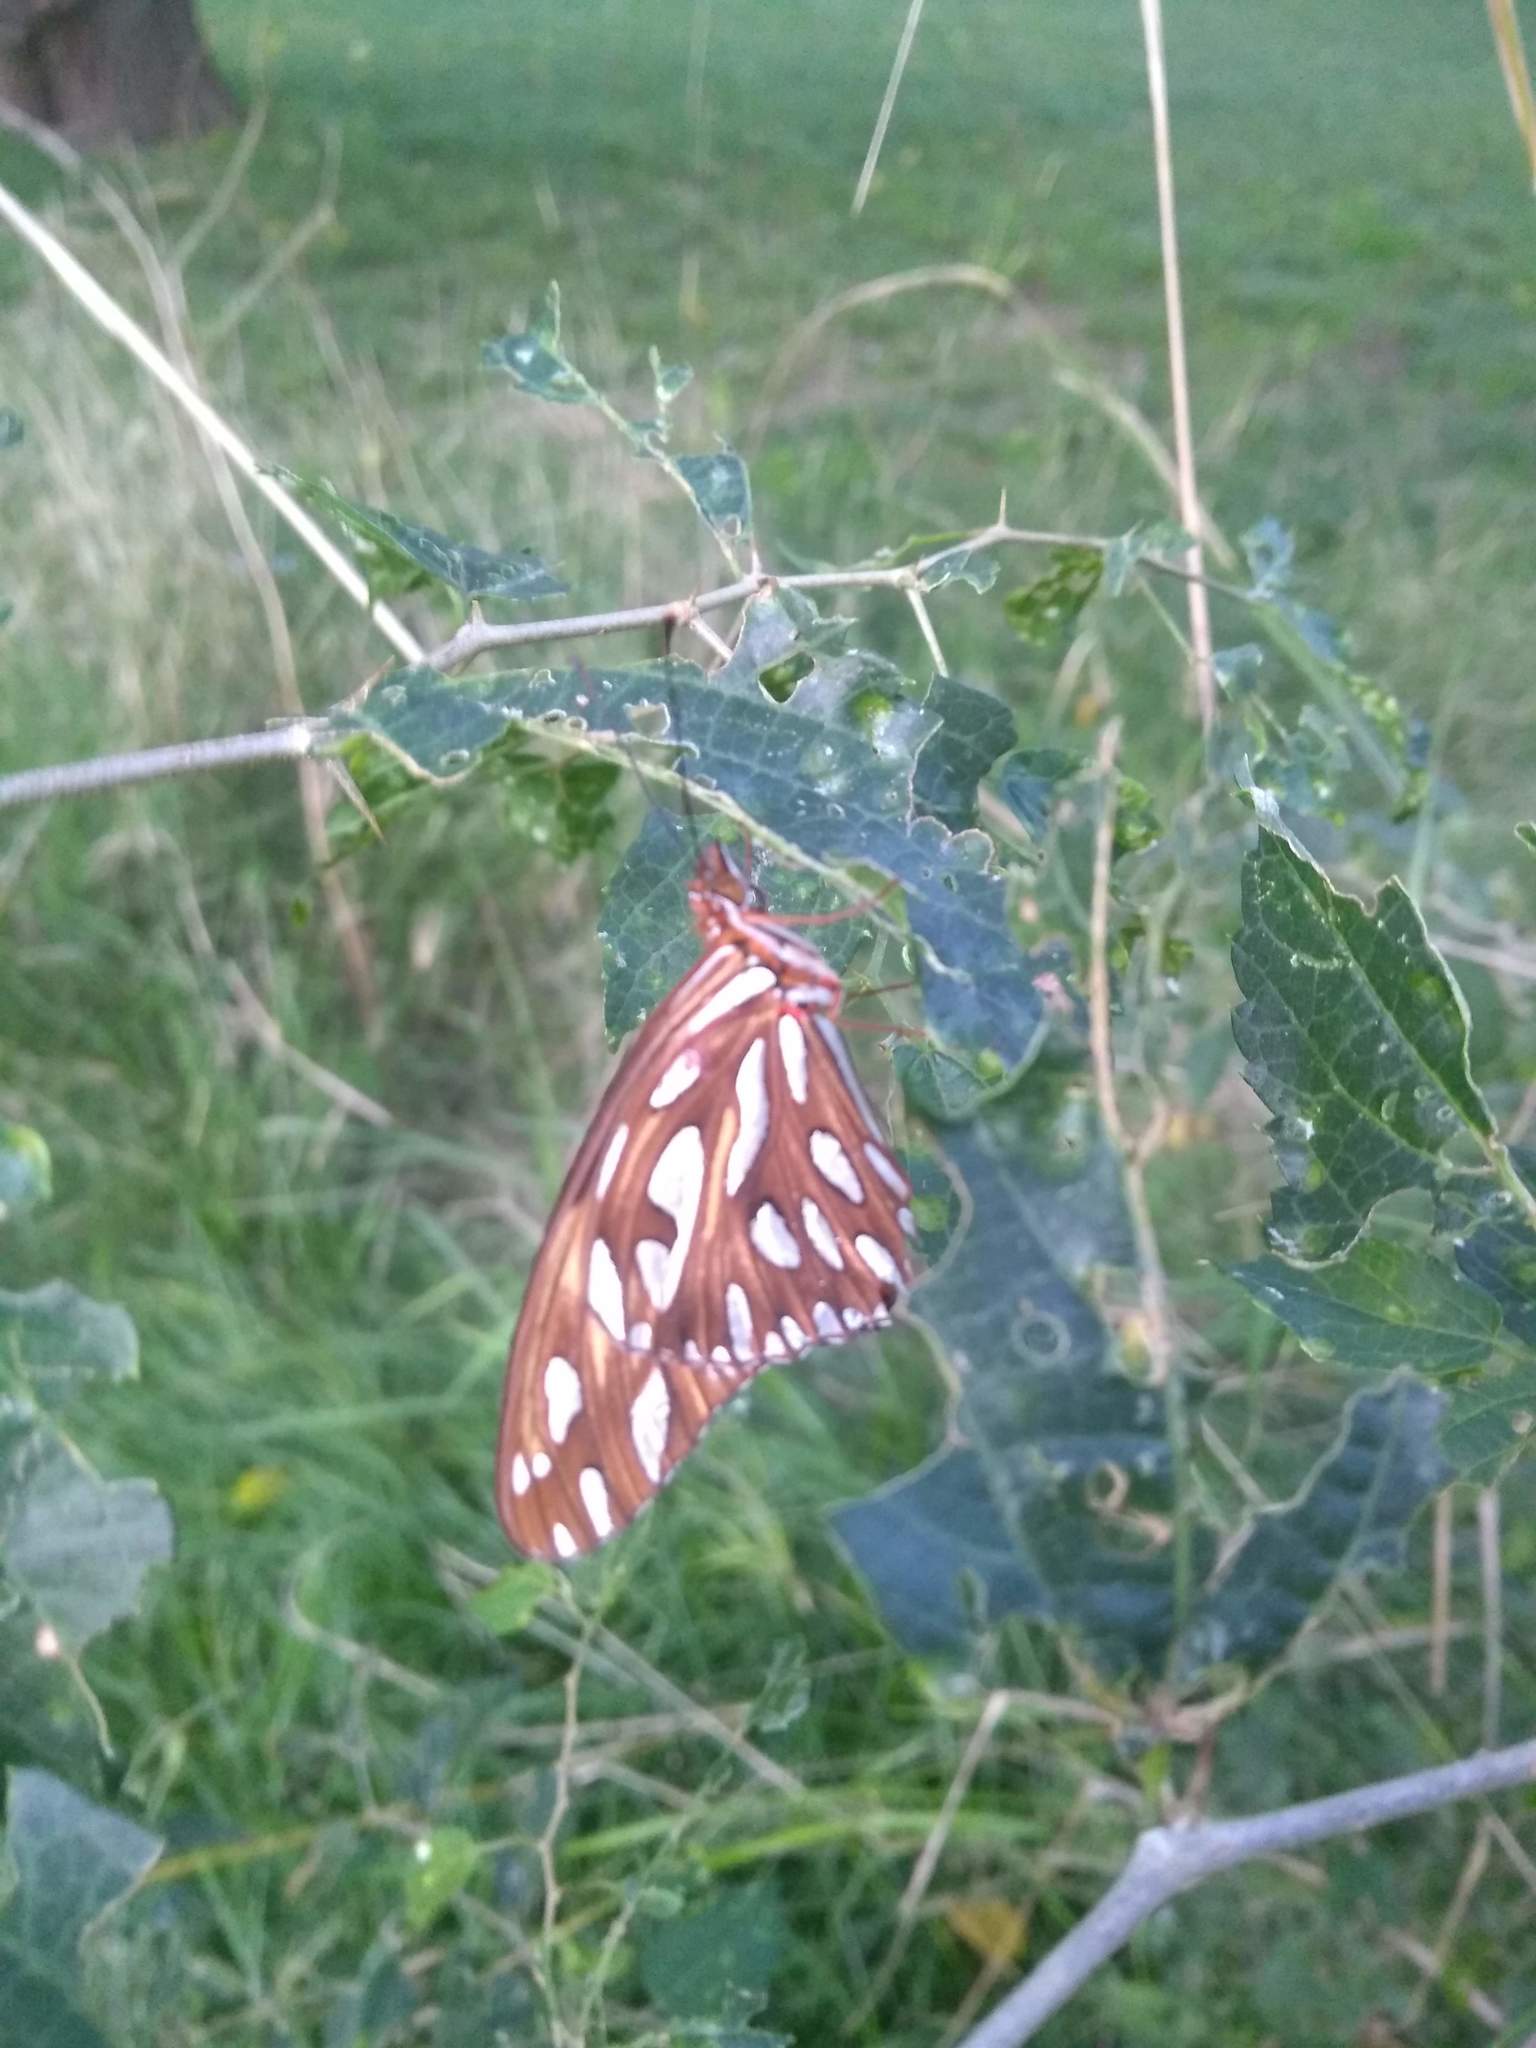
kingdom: Animalia
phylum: Arthropoda
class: Insecta
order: Lepidoptera
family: Nymphalidae
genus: Dione
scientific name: Dione vanillae
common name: Gulf fritillary
